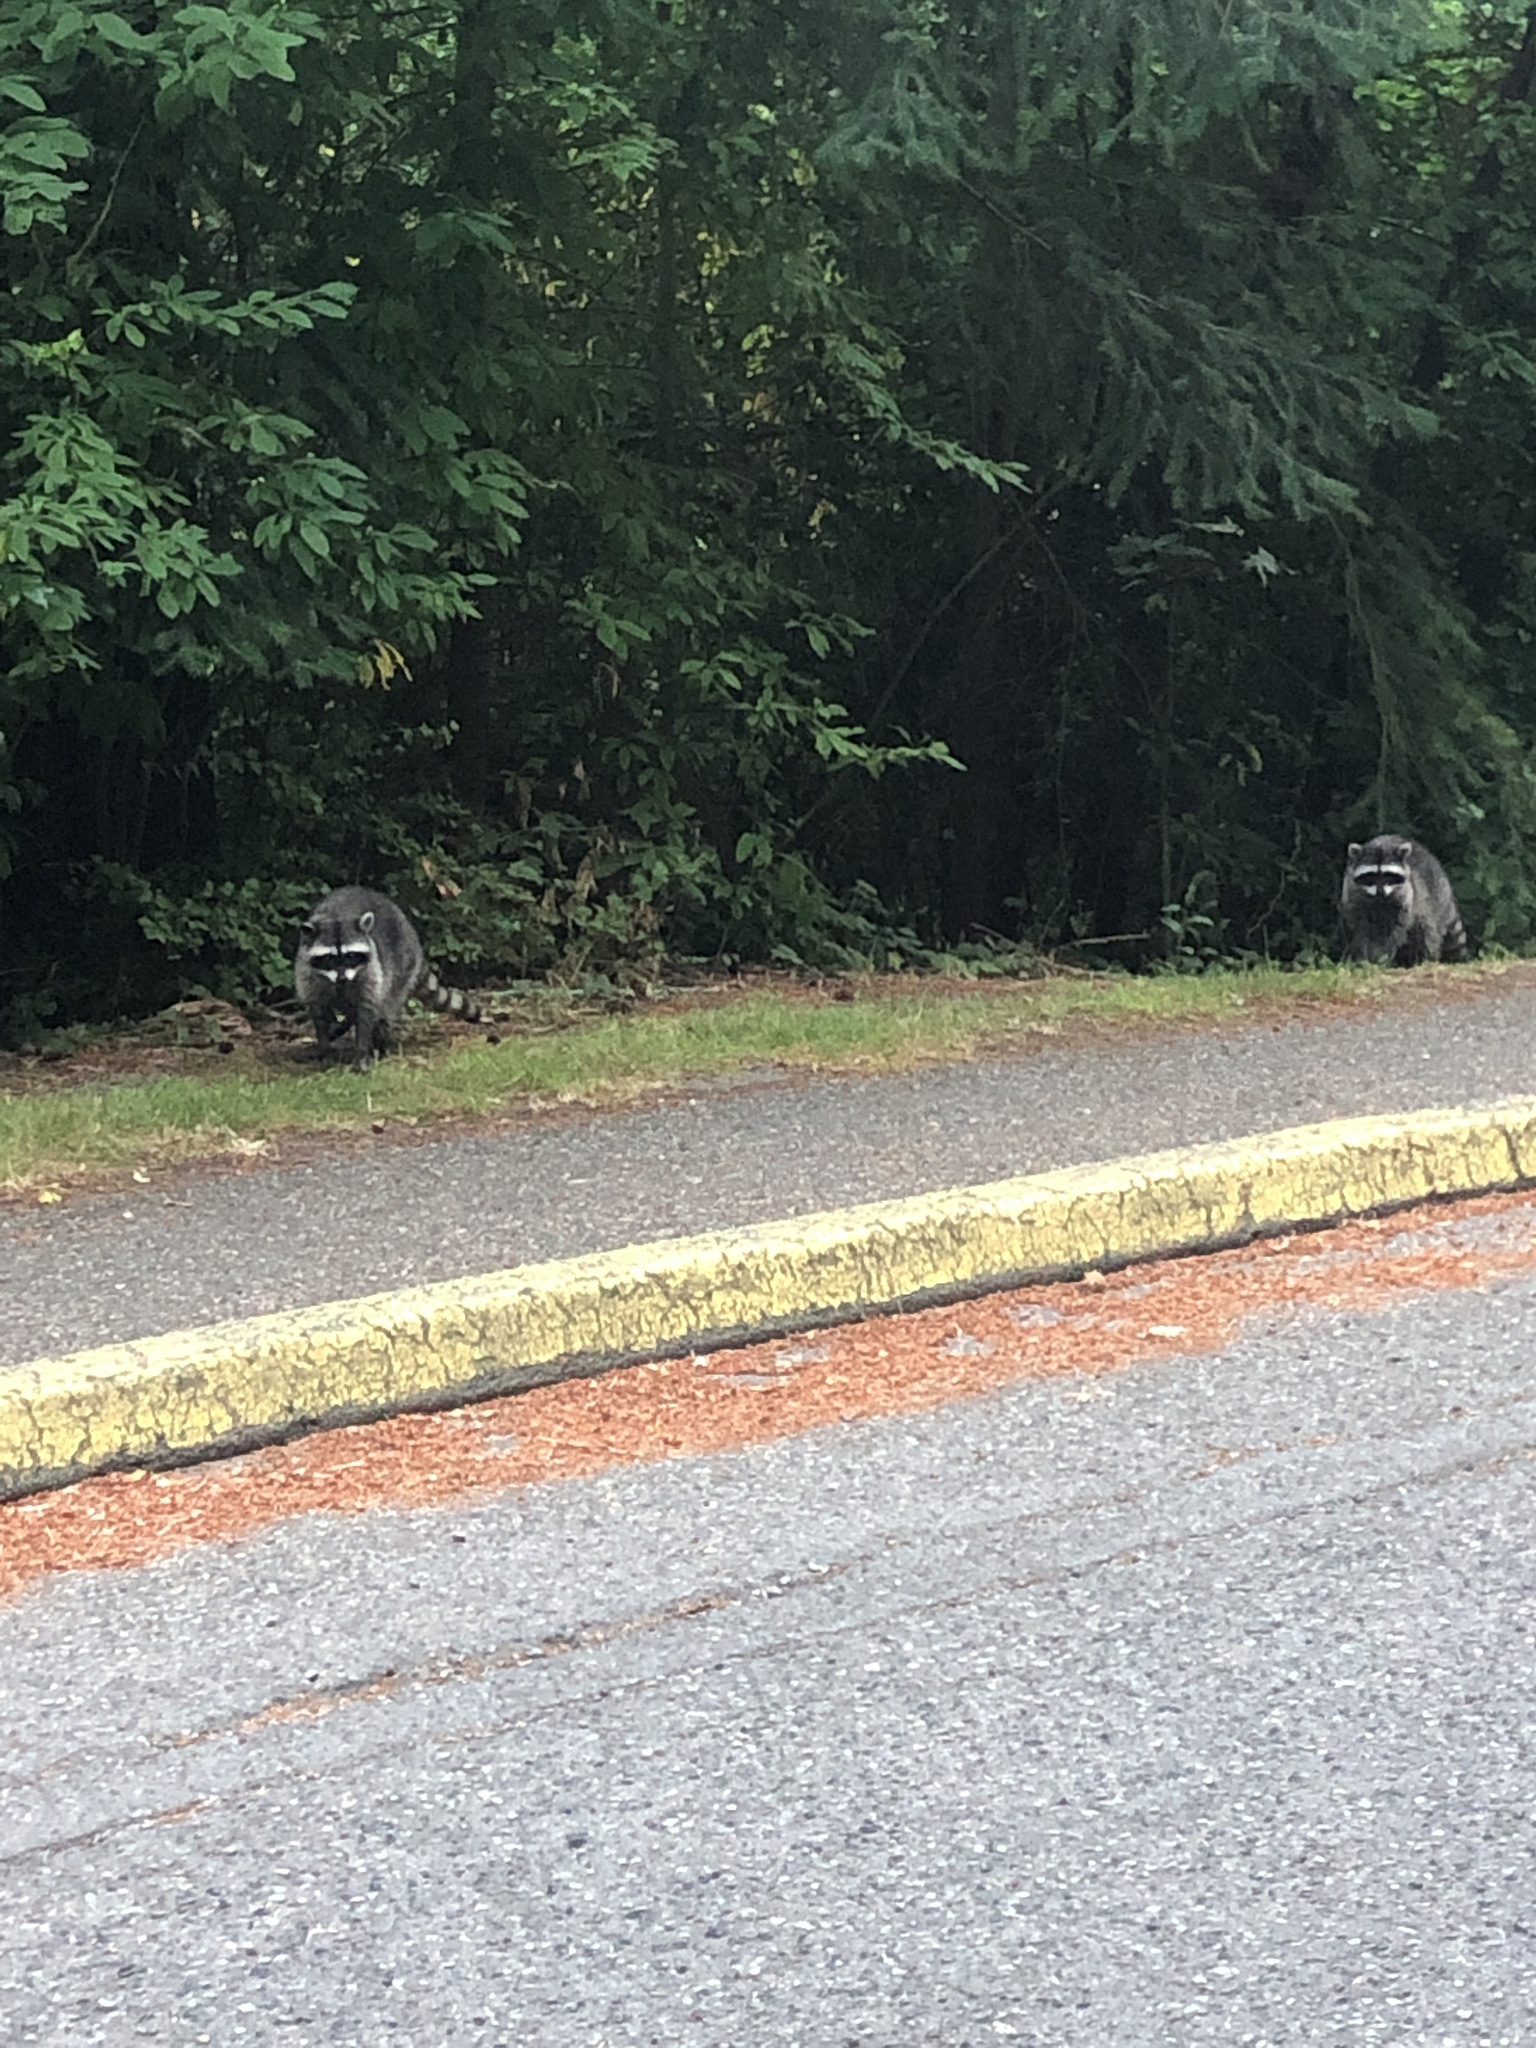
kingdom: Animalia
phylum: Chordata
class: Mammalia
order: Carnivora
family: Procyonidae
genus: Procyon
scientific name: Procyon lotor
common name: Raccoon
